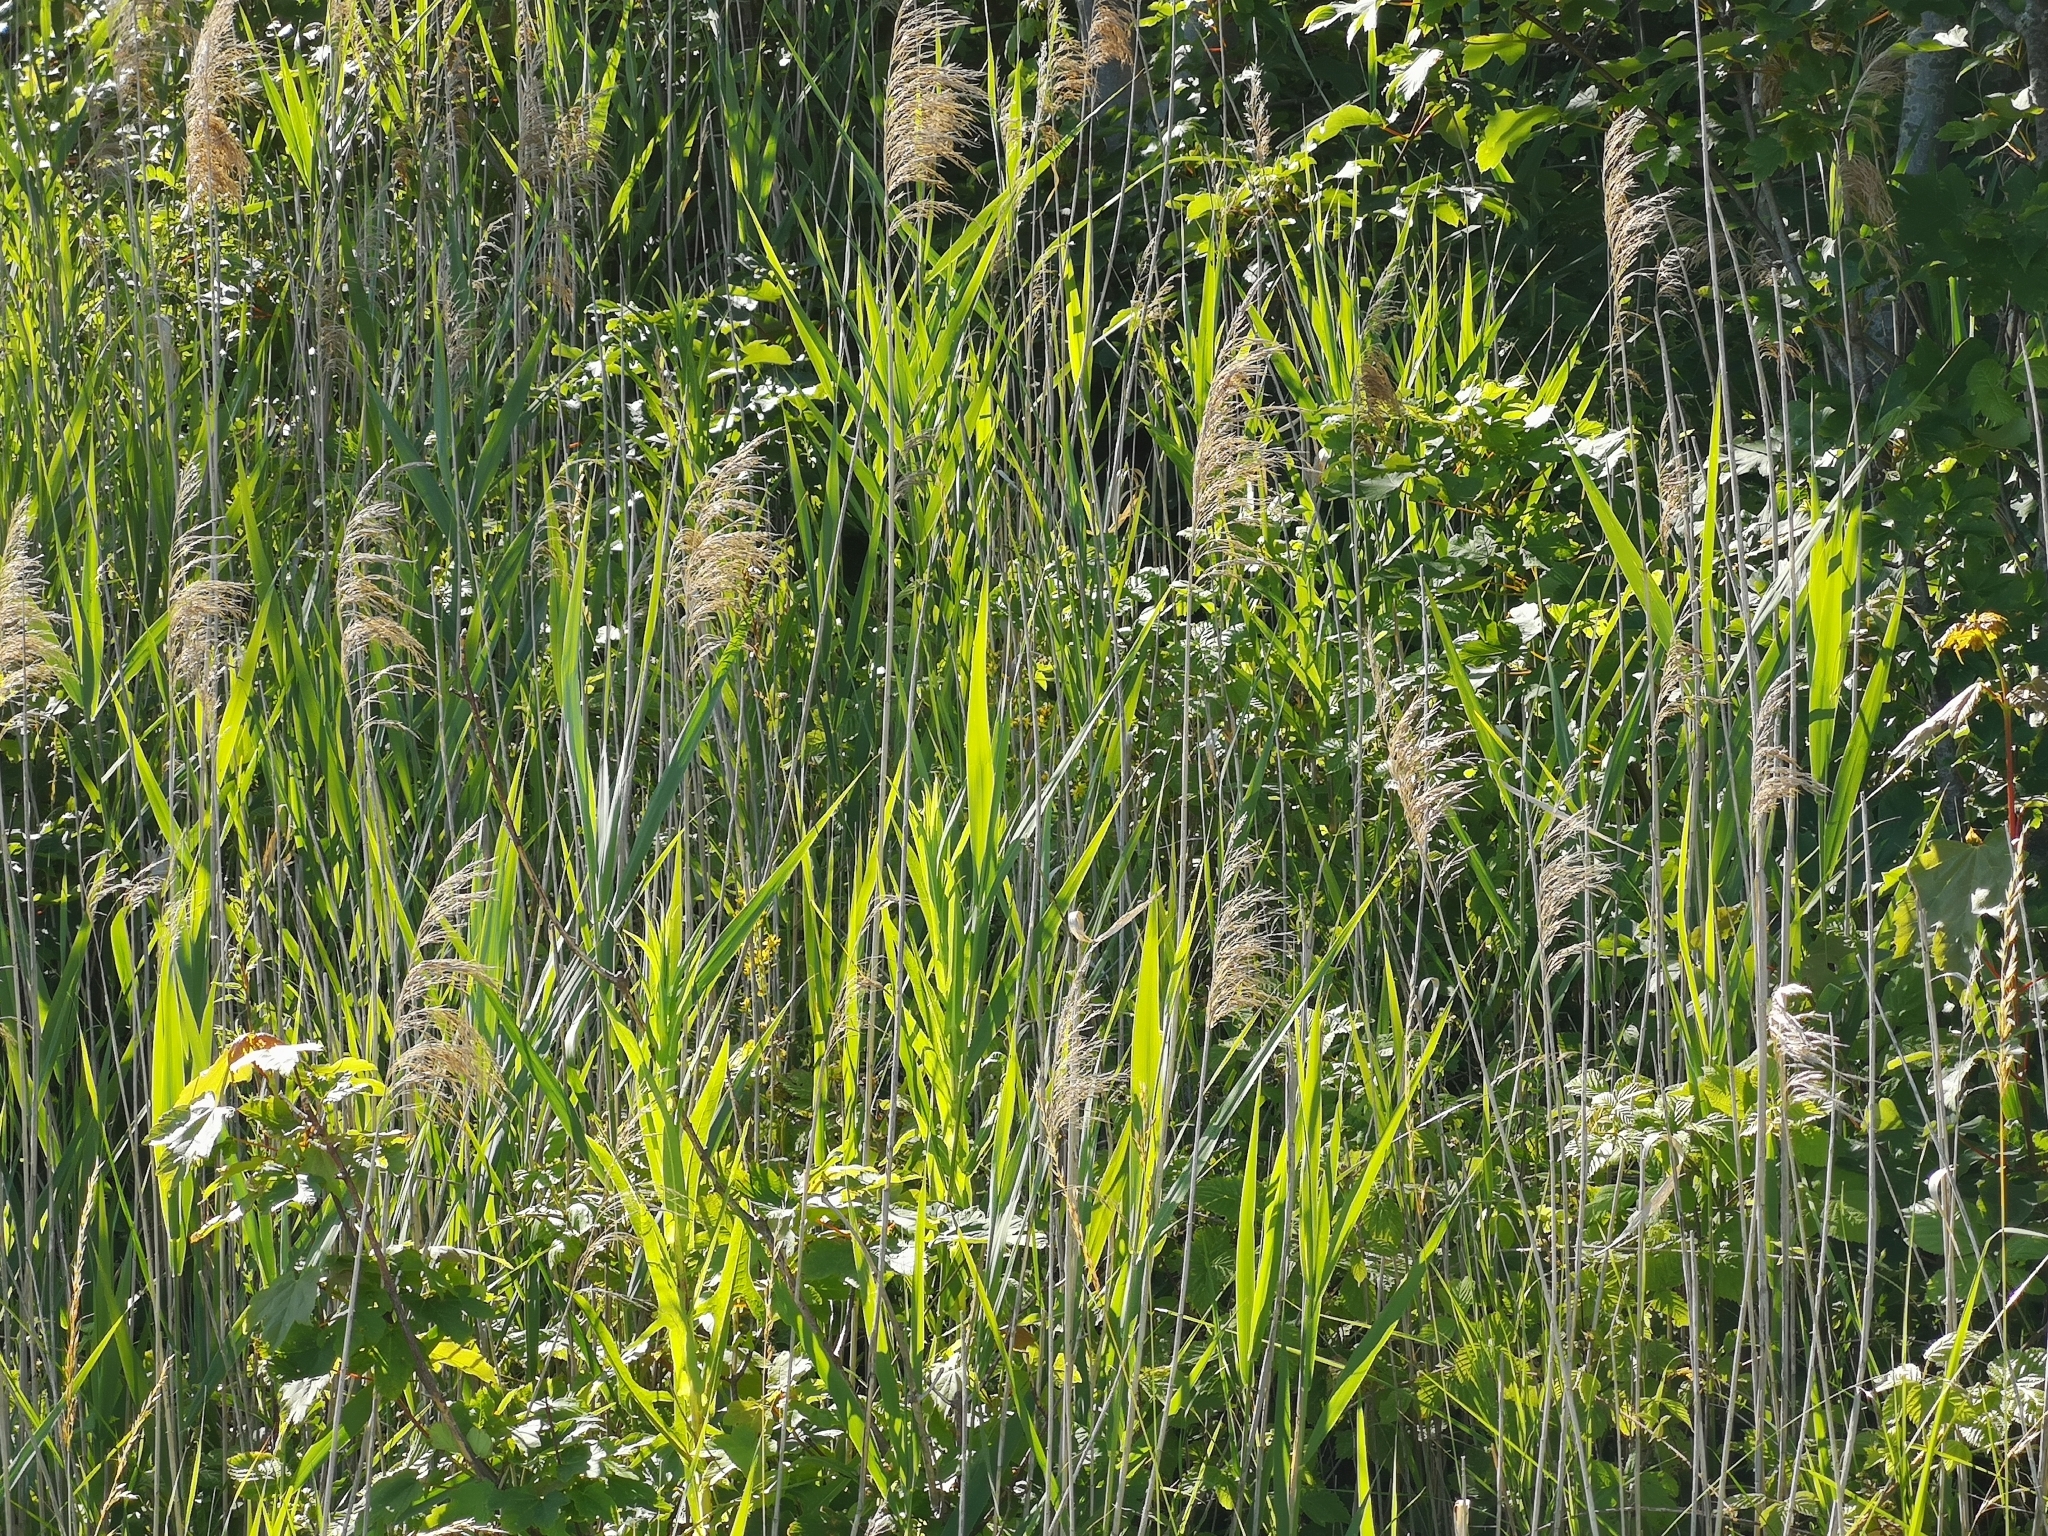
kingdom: Plantae
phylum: Tracheophyta
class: Liliopsida
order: Poales
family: Poaceae
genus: Phragmites
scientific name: Phragmites australis
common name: Common reed
